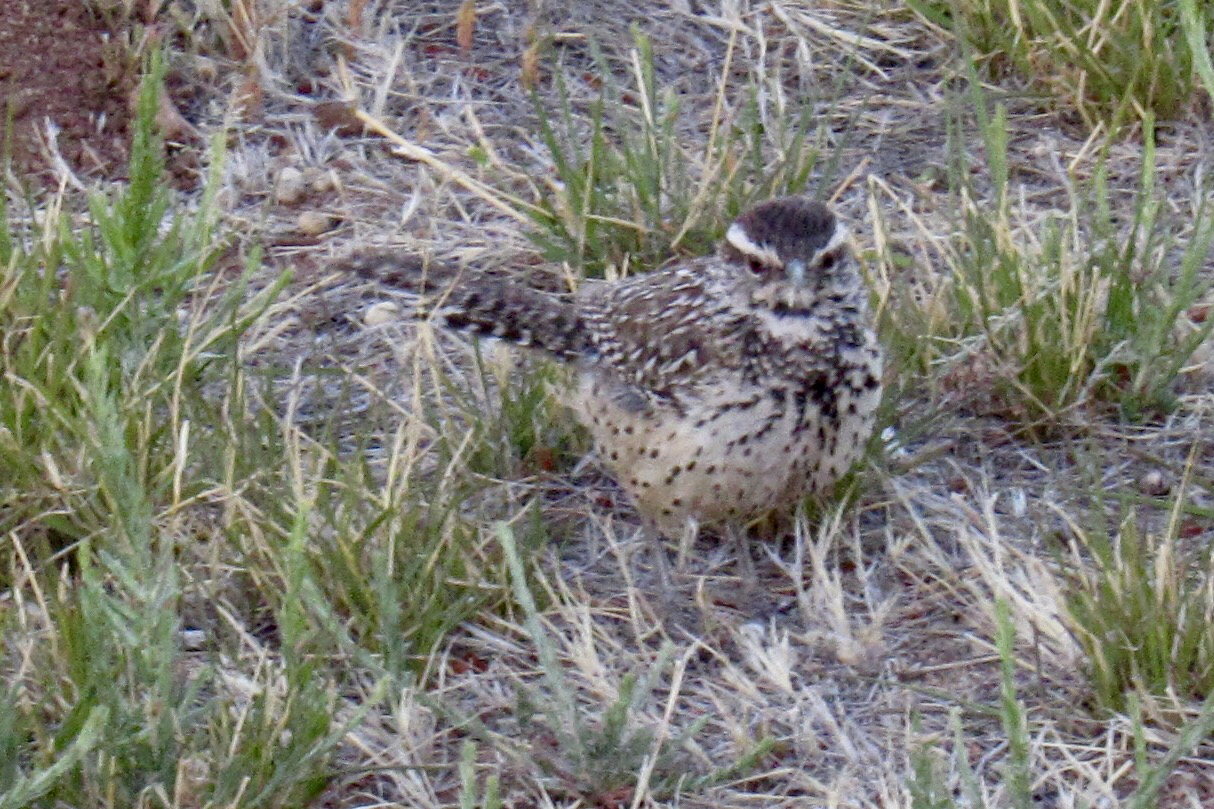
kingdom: Animalia
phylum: Chordata
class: Aves
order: Passeriformes
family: Troglodytidae
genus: Campylorhynchus
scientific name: Campylorhynchus brunneicapillus
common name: Cactus wren
